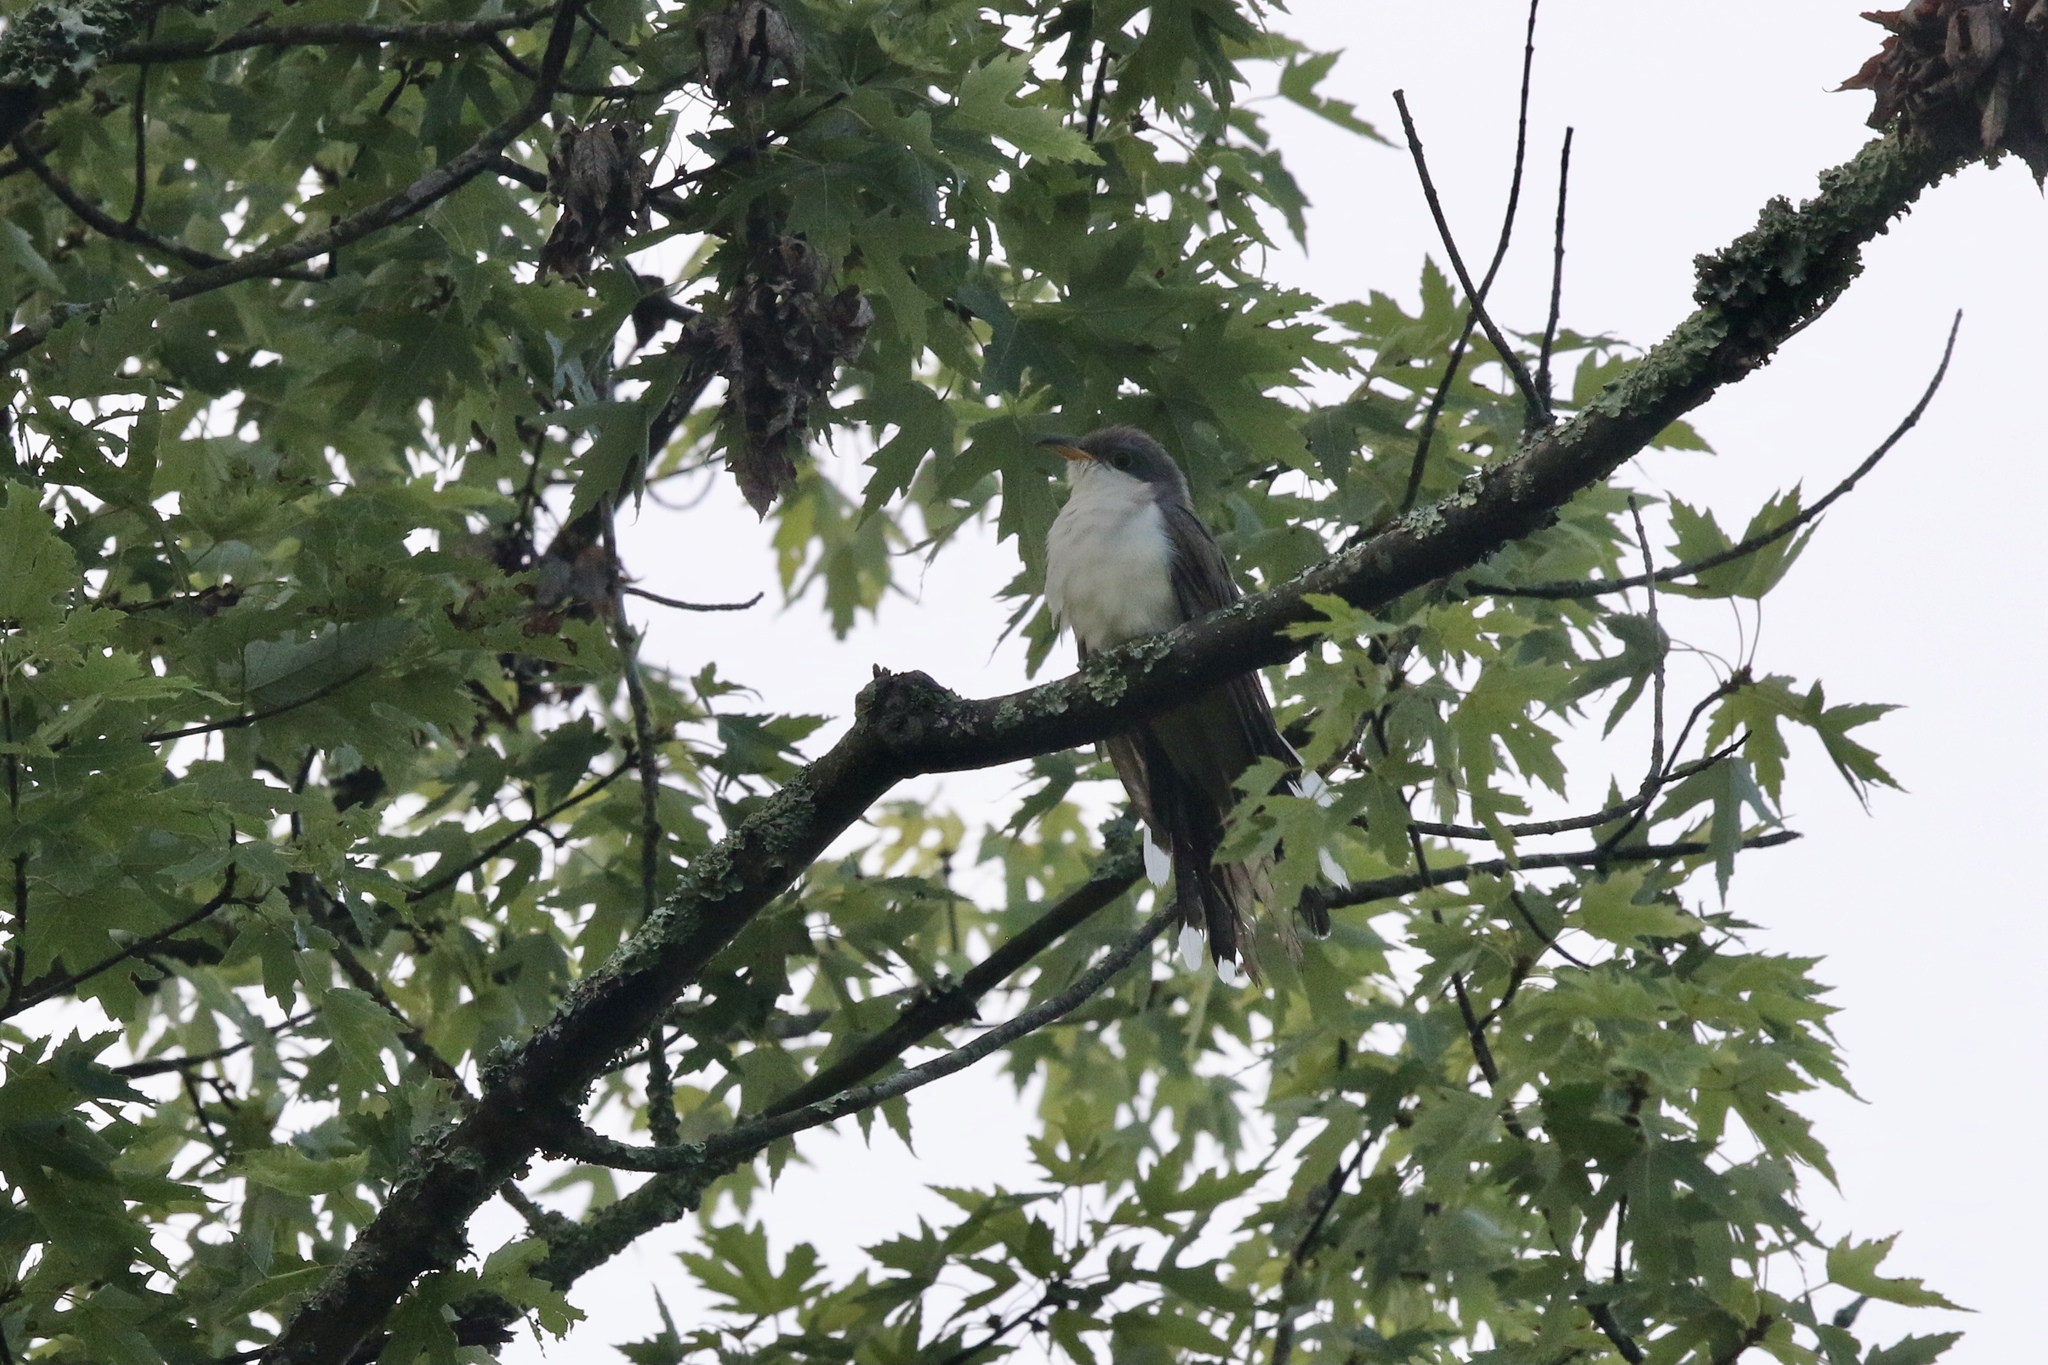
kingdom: Animalia
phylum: Chordata
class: Aves
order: Cuculiformes
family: Cuculidae
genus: Coccyzus
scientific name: Coccyzus americanus
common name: Yellow-billed cuckoo
